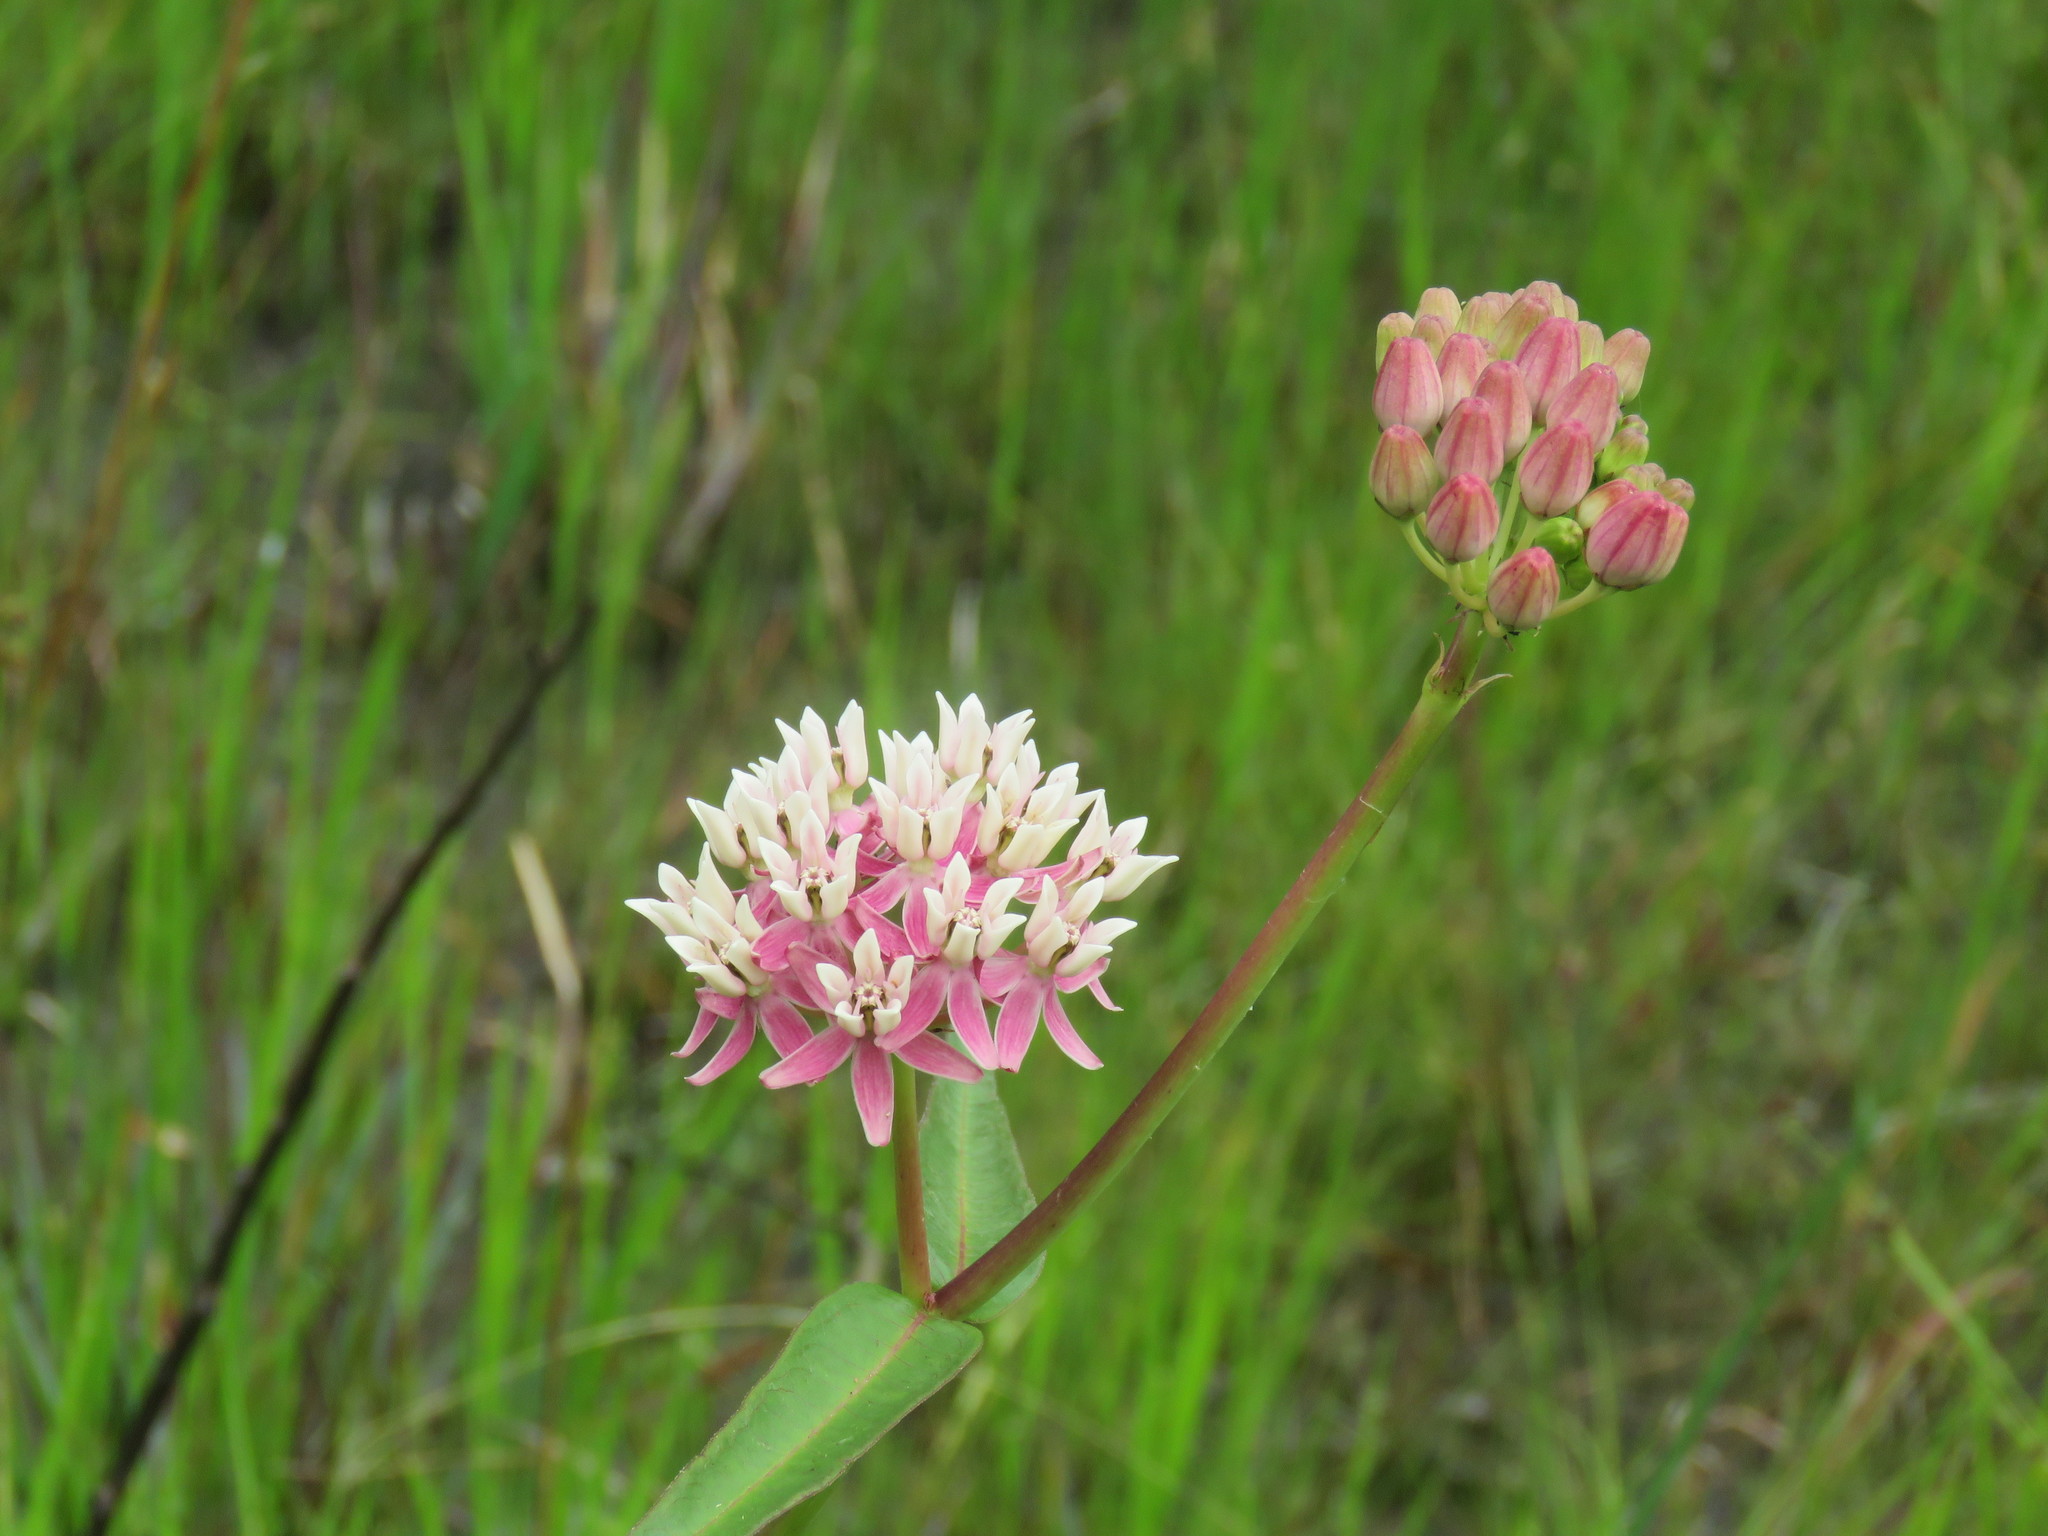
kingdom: Plantae
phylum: Tracheophyta
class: Magnoliopsida
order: Gentianales
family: Apocynaceae
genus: Asclepias
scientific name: Asclepias rubra
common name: Red milkweed
